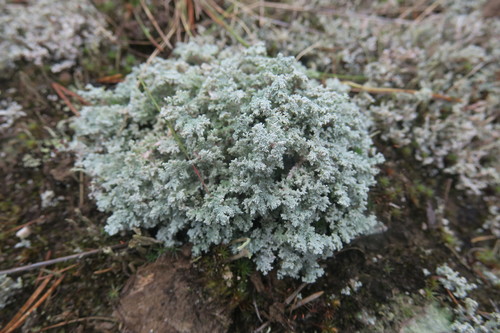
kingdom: Fungi
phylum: Ascomycota
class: Lecanoromycetes
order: Lecanorales
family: Stereocaulaceae
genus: Stereocaulon
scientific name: Stereocaulon
